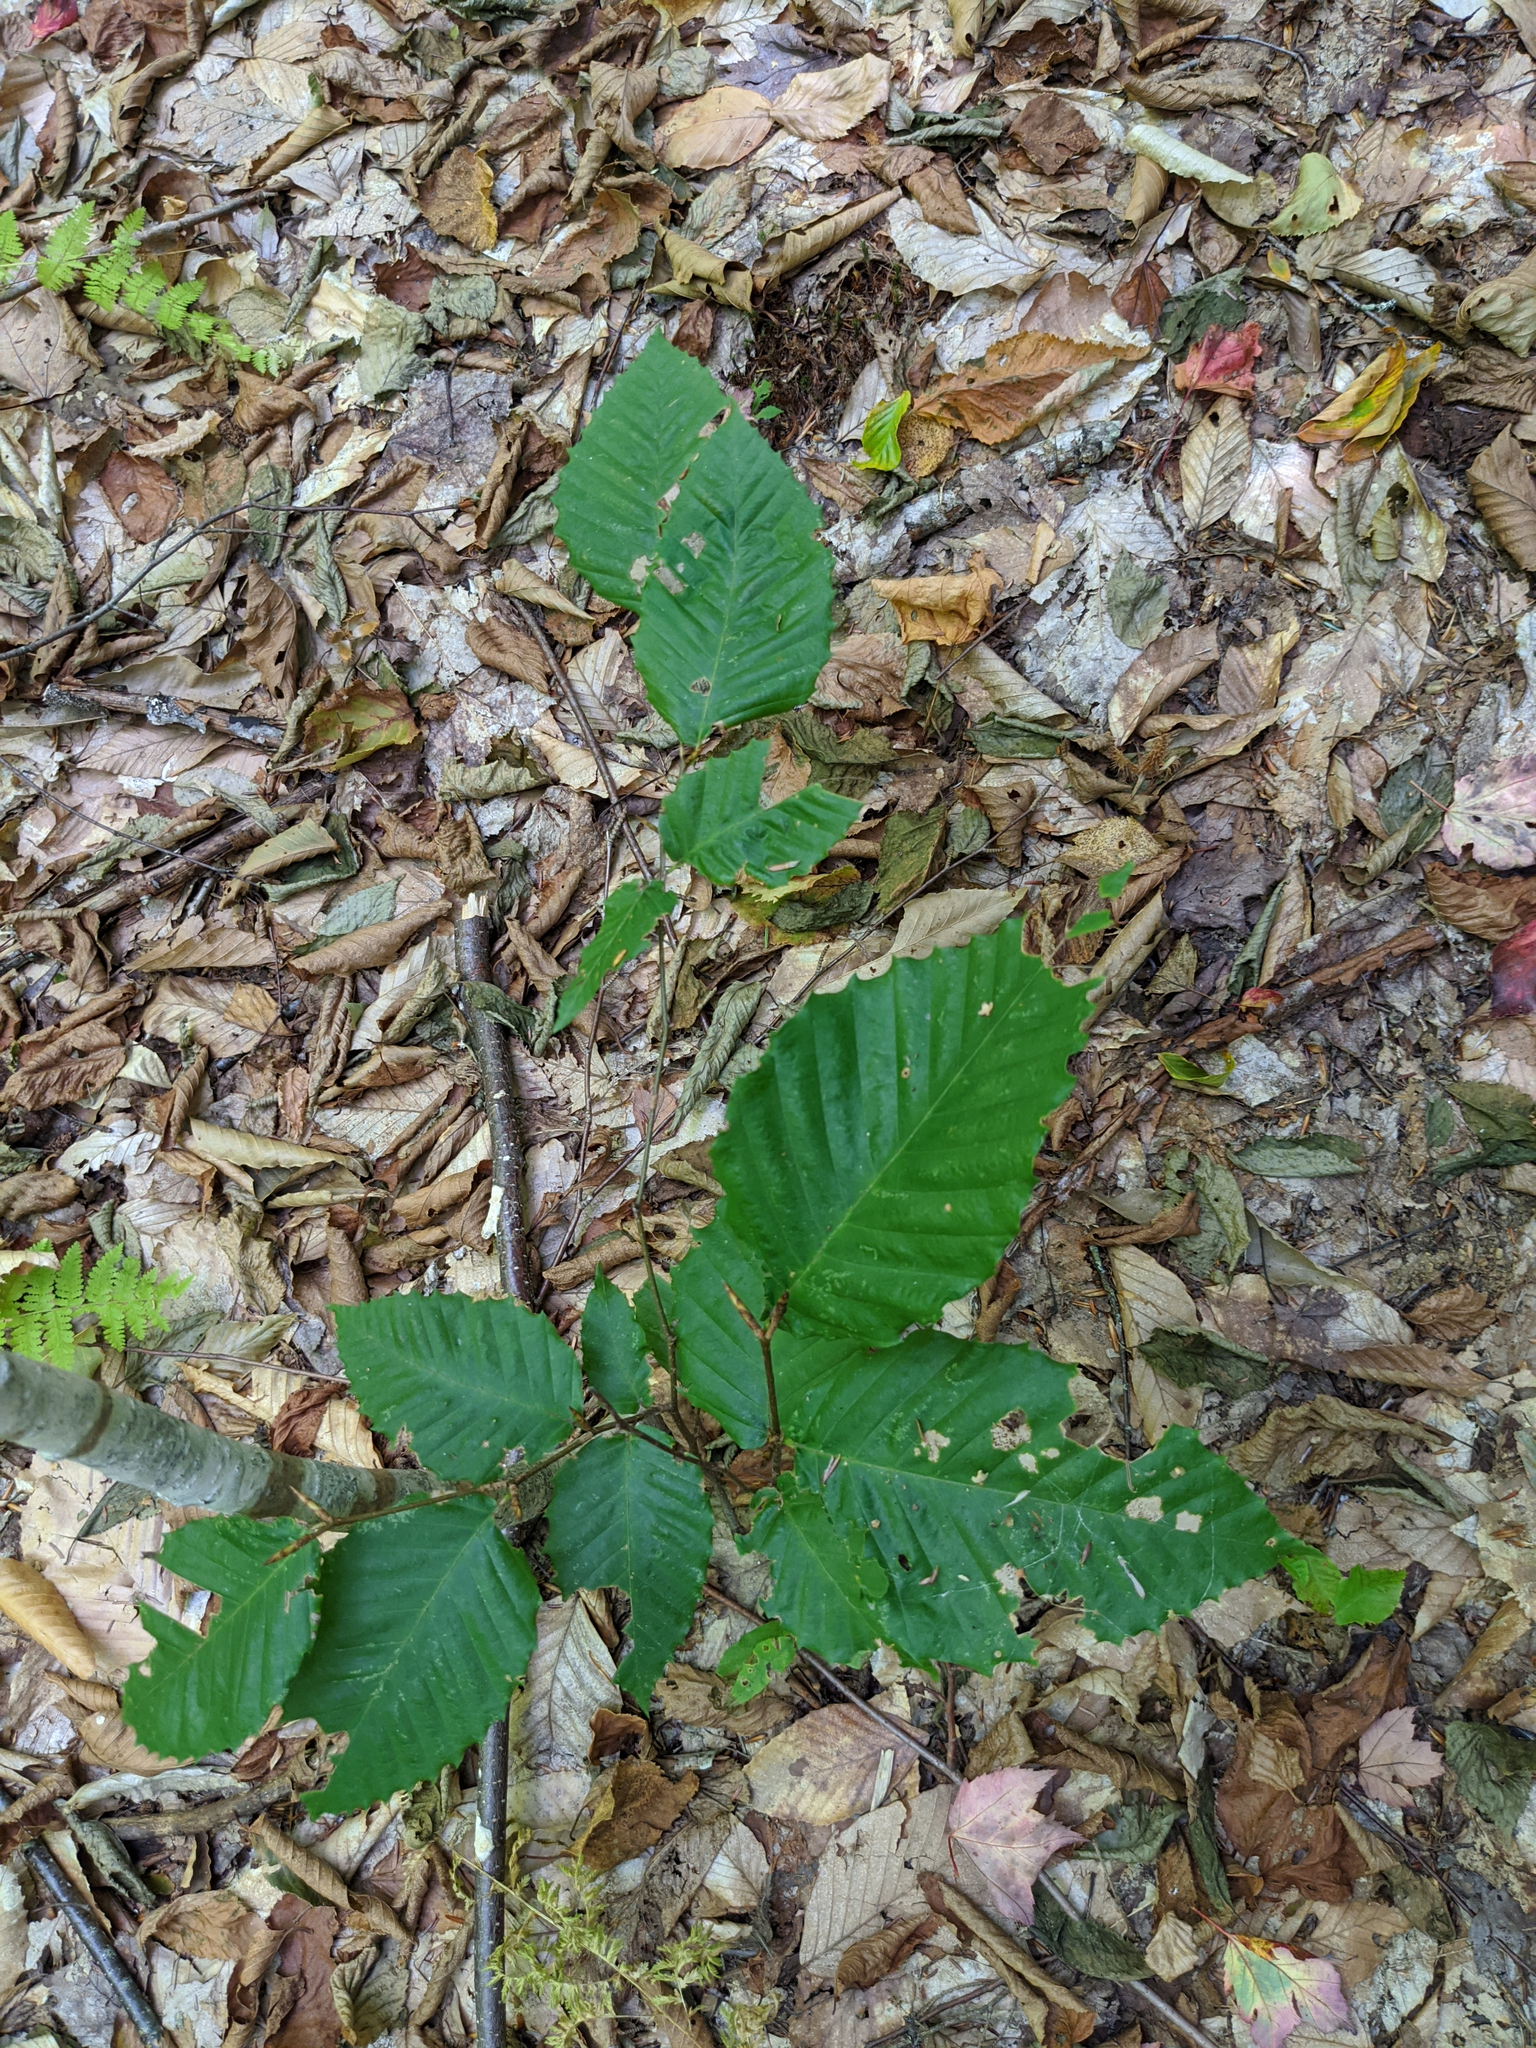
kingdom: Plantae
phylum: Tracheophyta
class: Magnoliopsida
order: Fagales
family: Fagaceae
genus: Fagus
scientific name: Fagus grandifolia
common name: American beech
